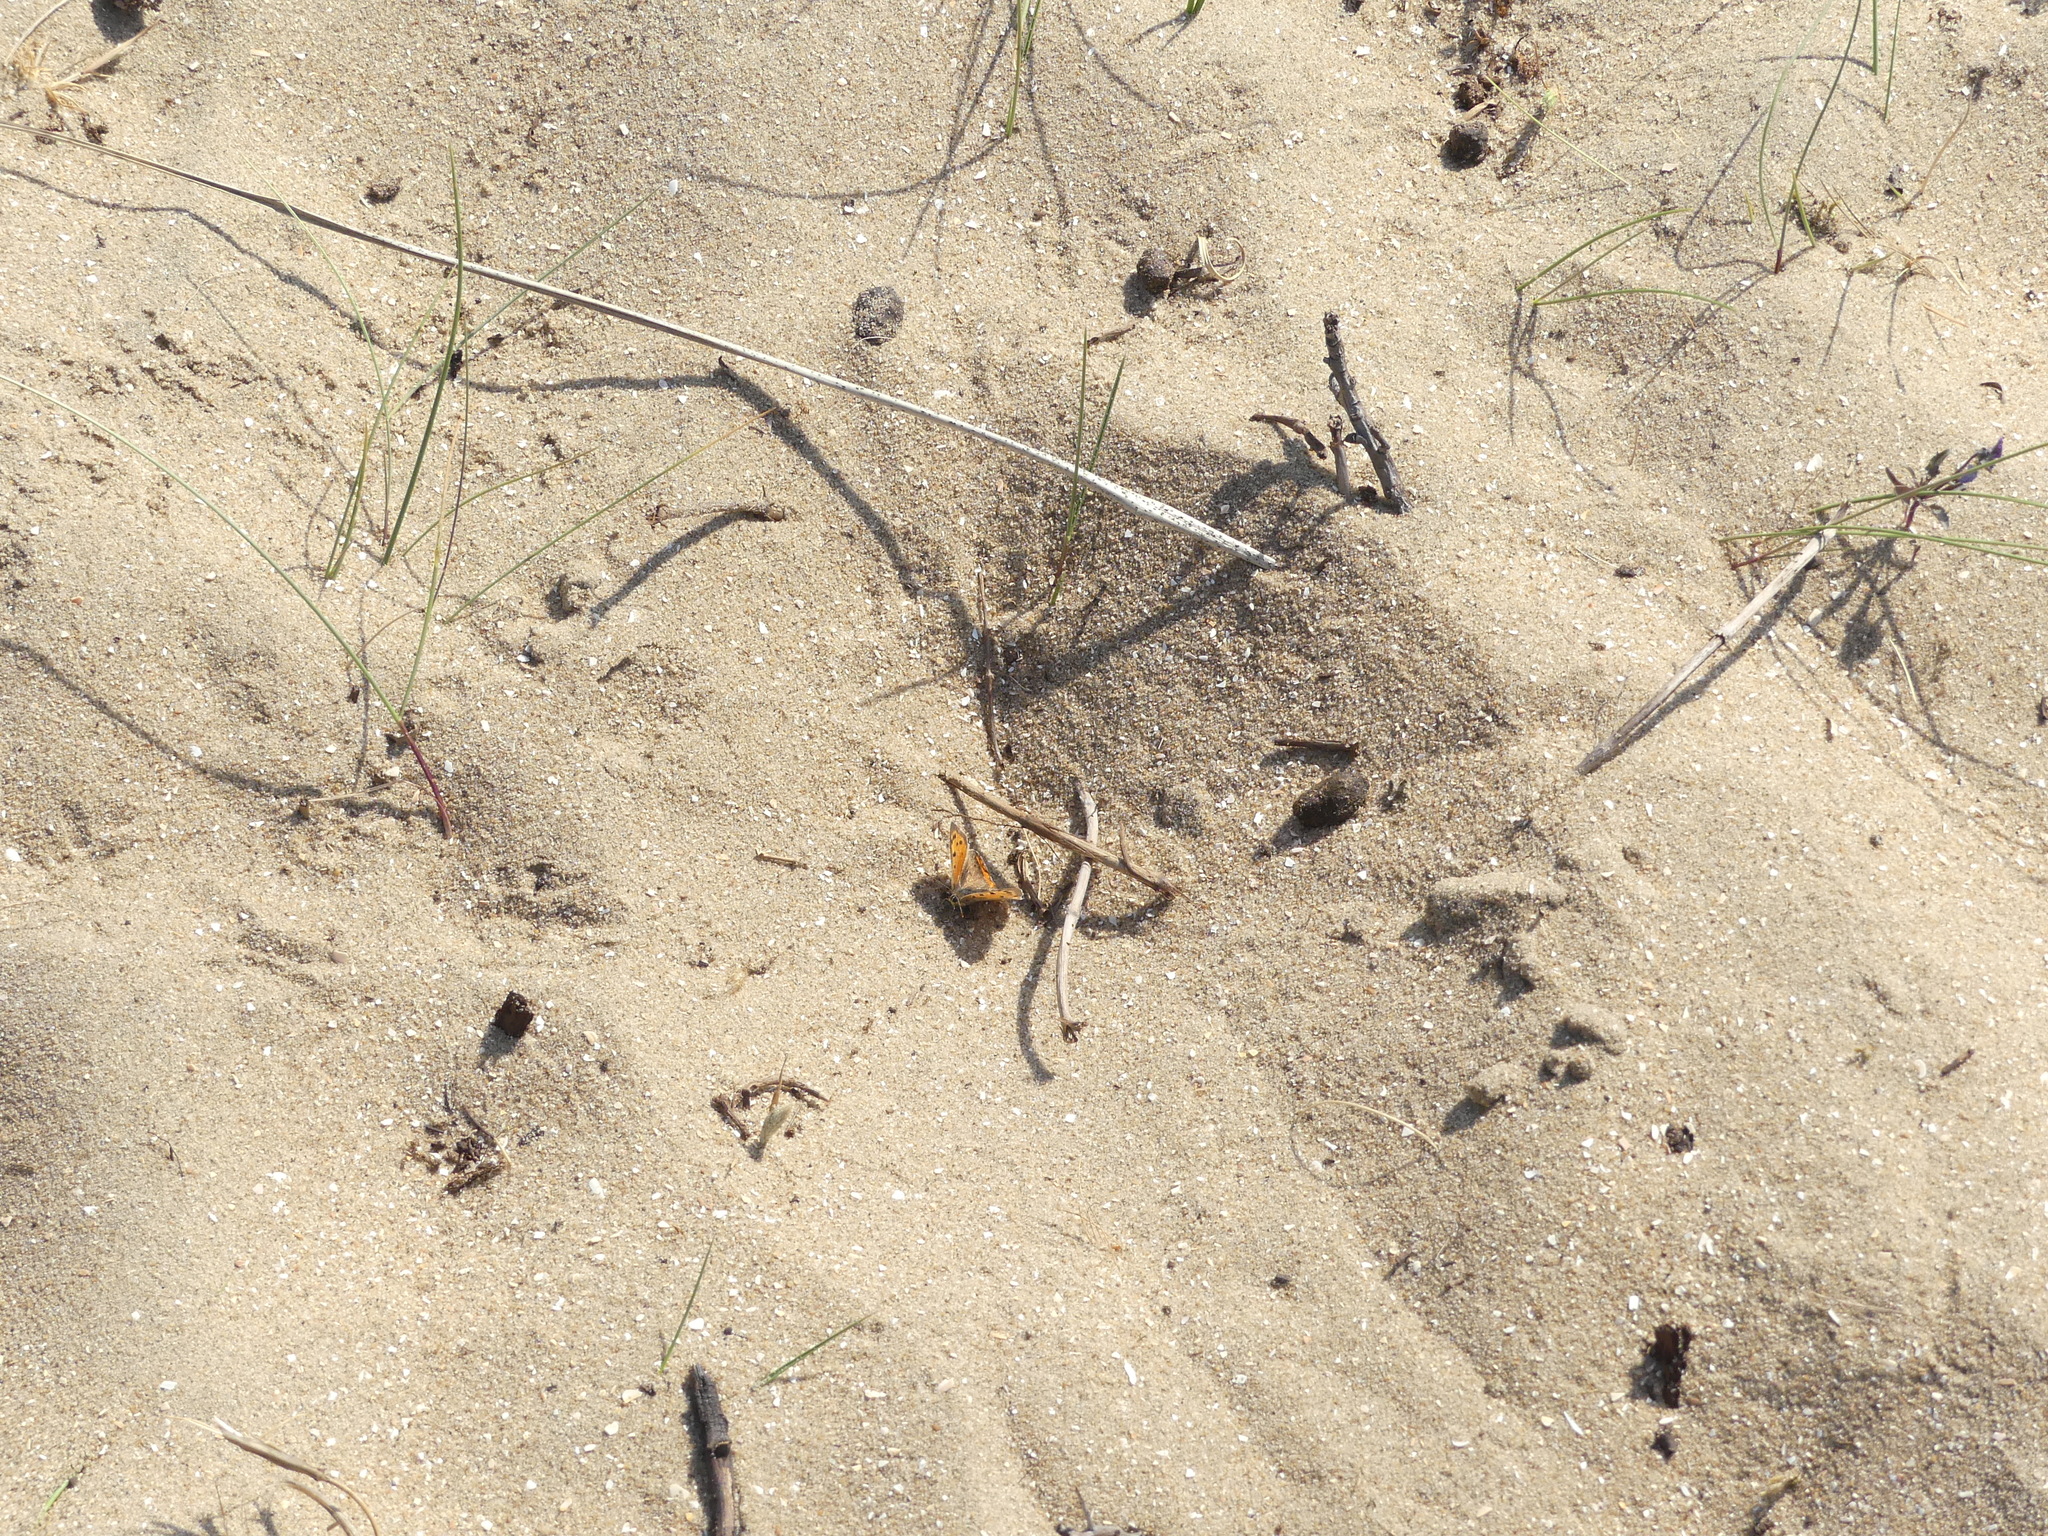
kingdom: Animalia
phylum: Arthropoda
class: Insecta
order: Lepidoptera
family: Lycaenidae
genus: Lycaena
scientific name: Lycaena phlaeas
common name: Small copper
